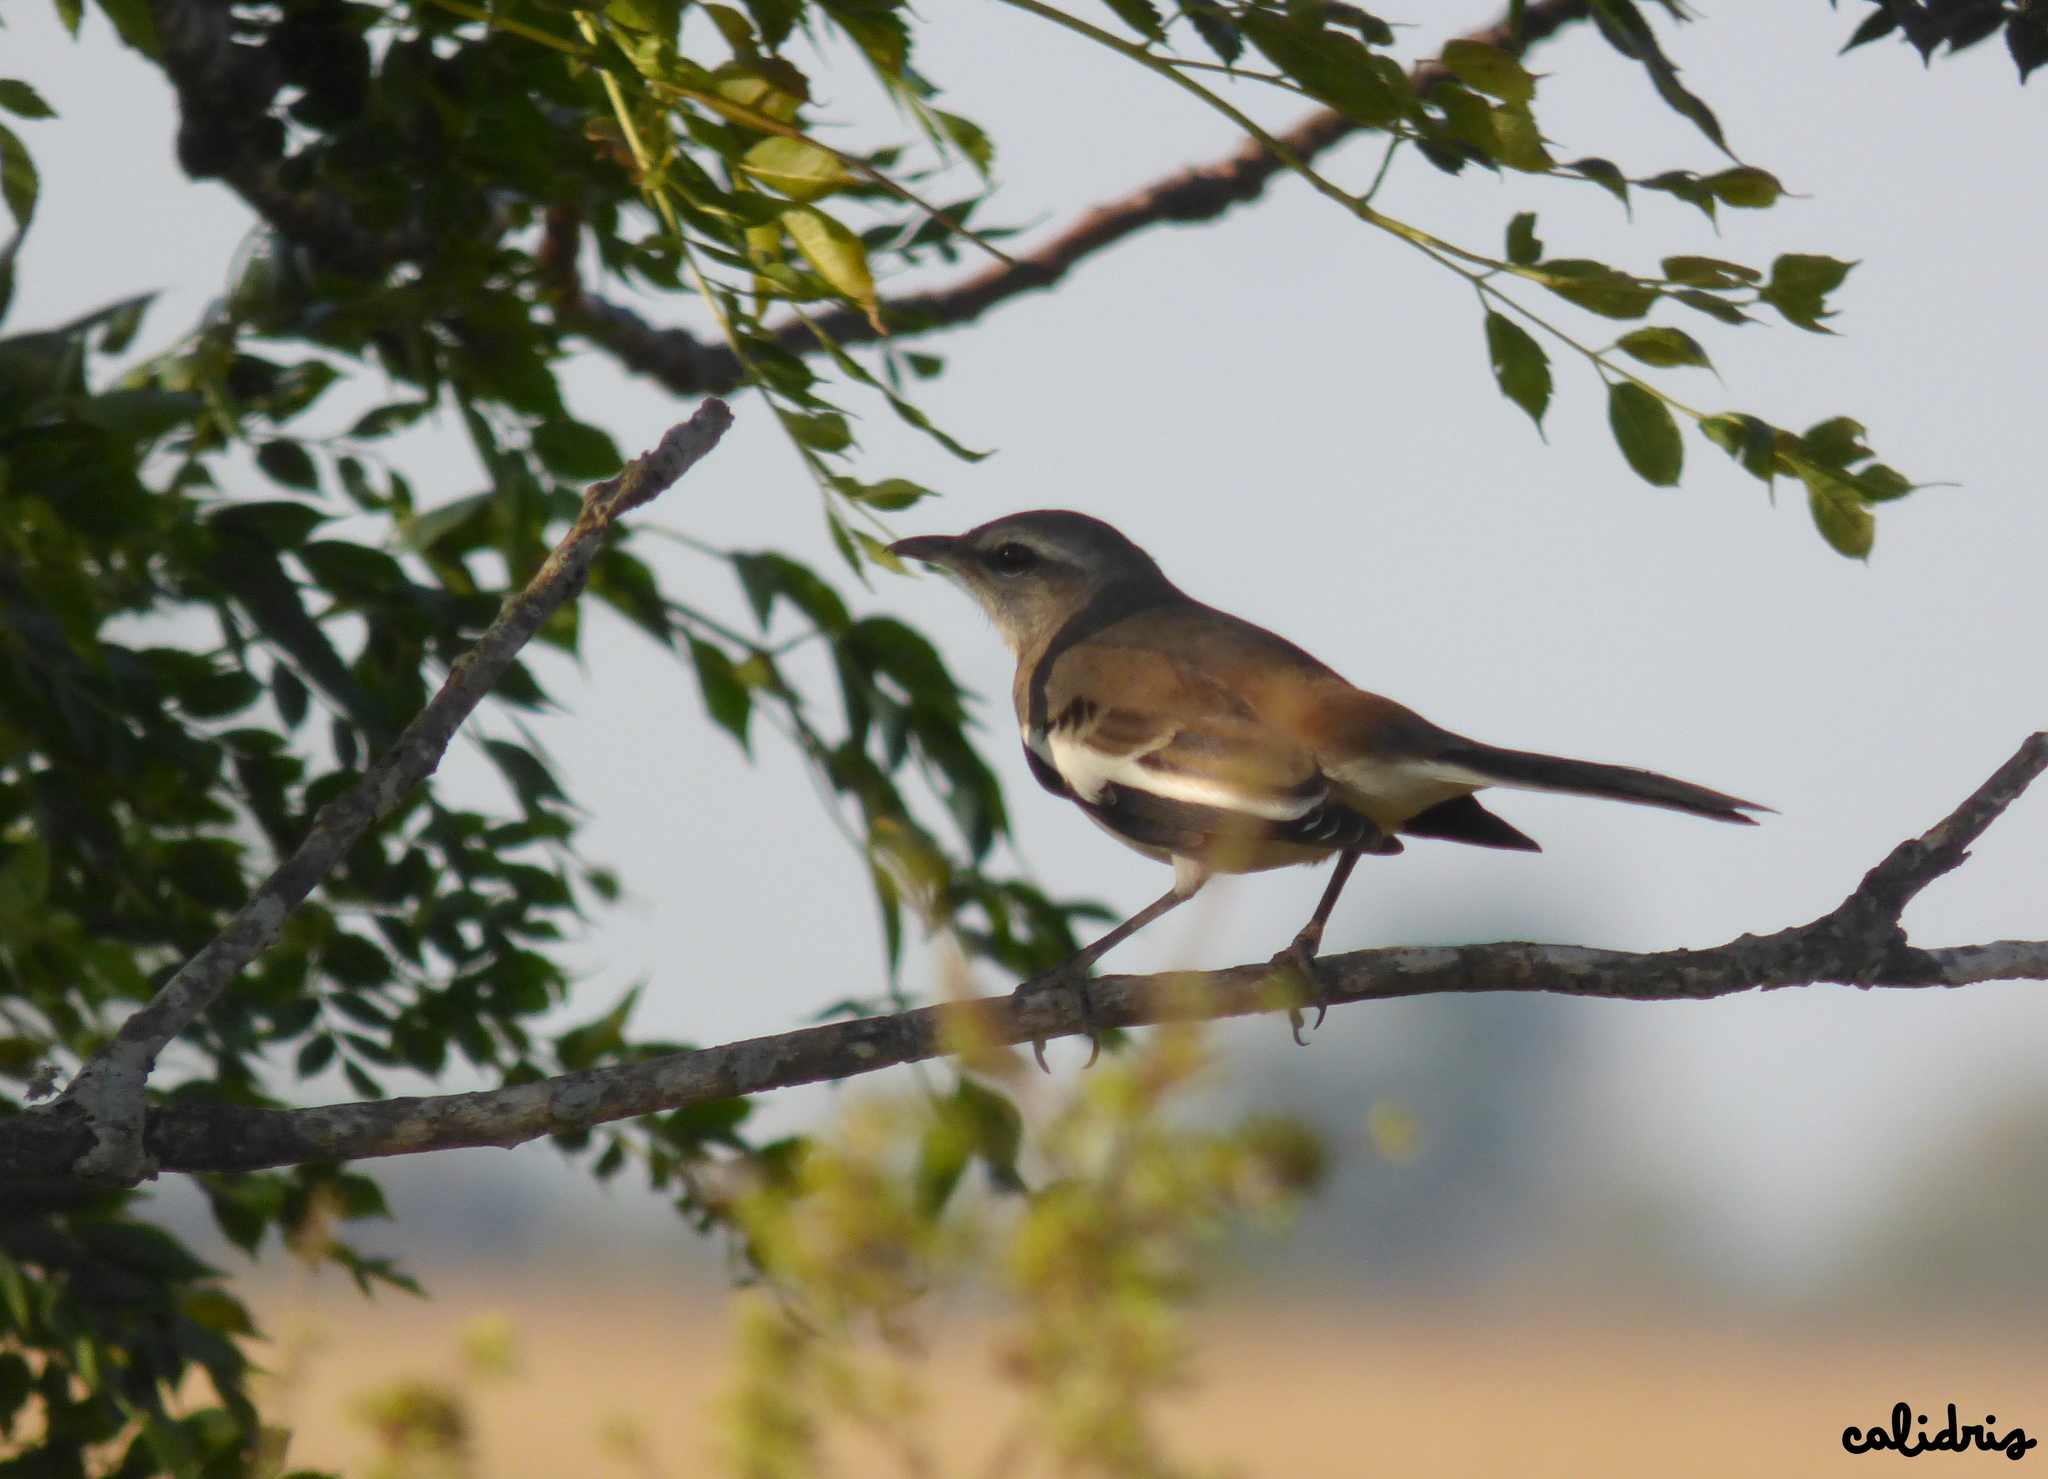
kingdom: Animalia
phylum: Chordata
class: Aves
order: Passeriformes
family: Mimidae
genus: Mimus
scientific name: Mimus triurus
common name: White-banded mockingbird
